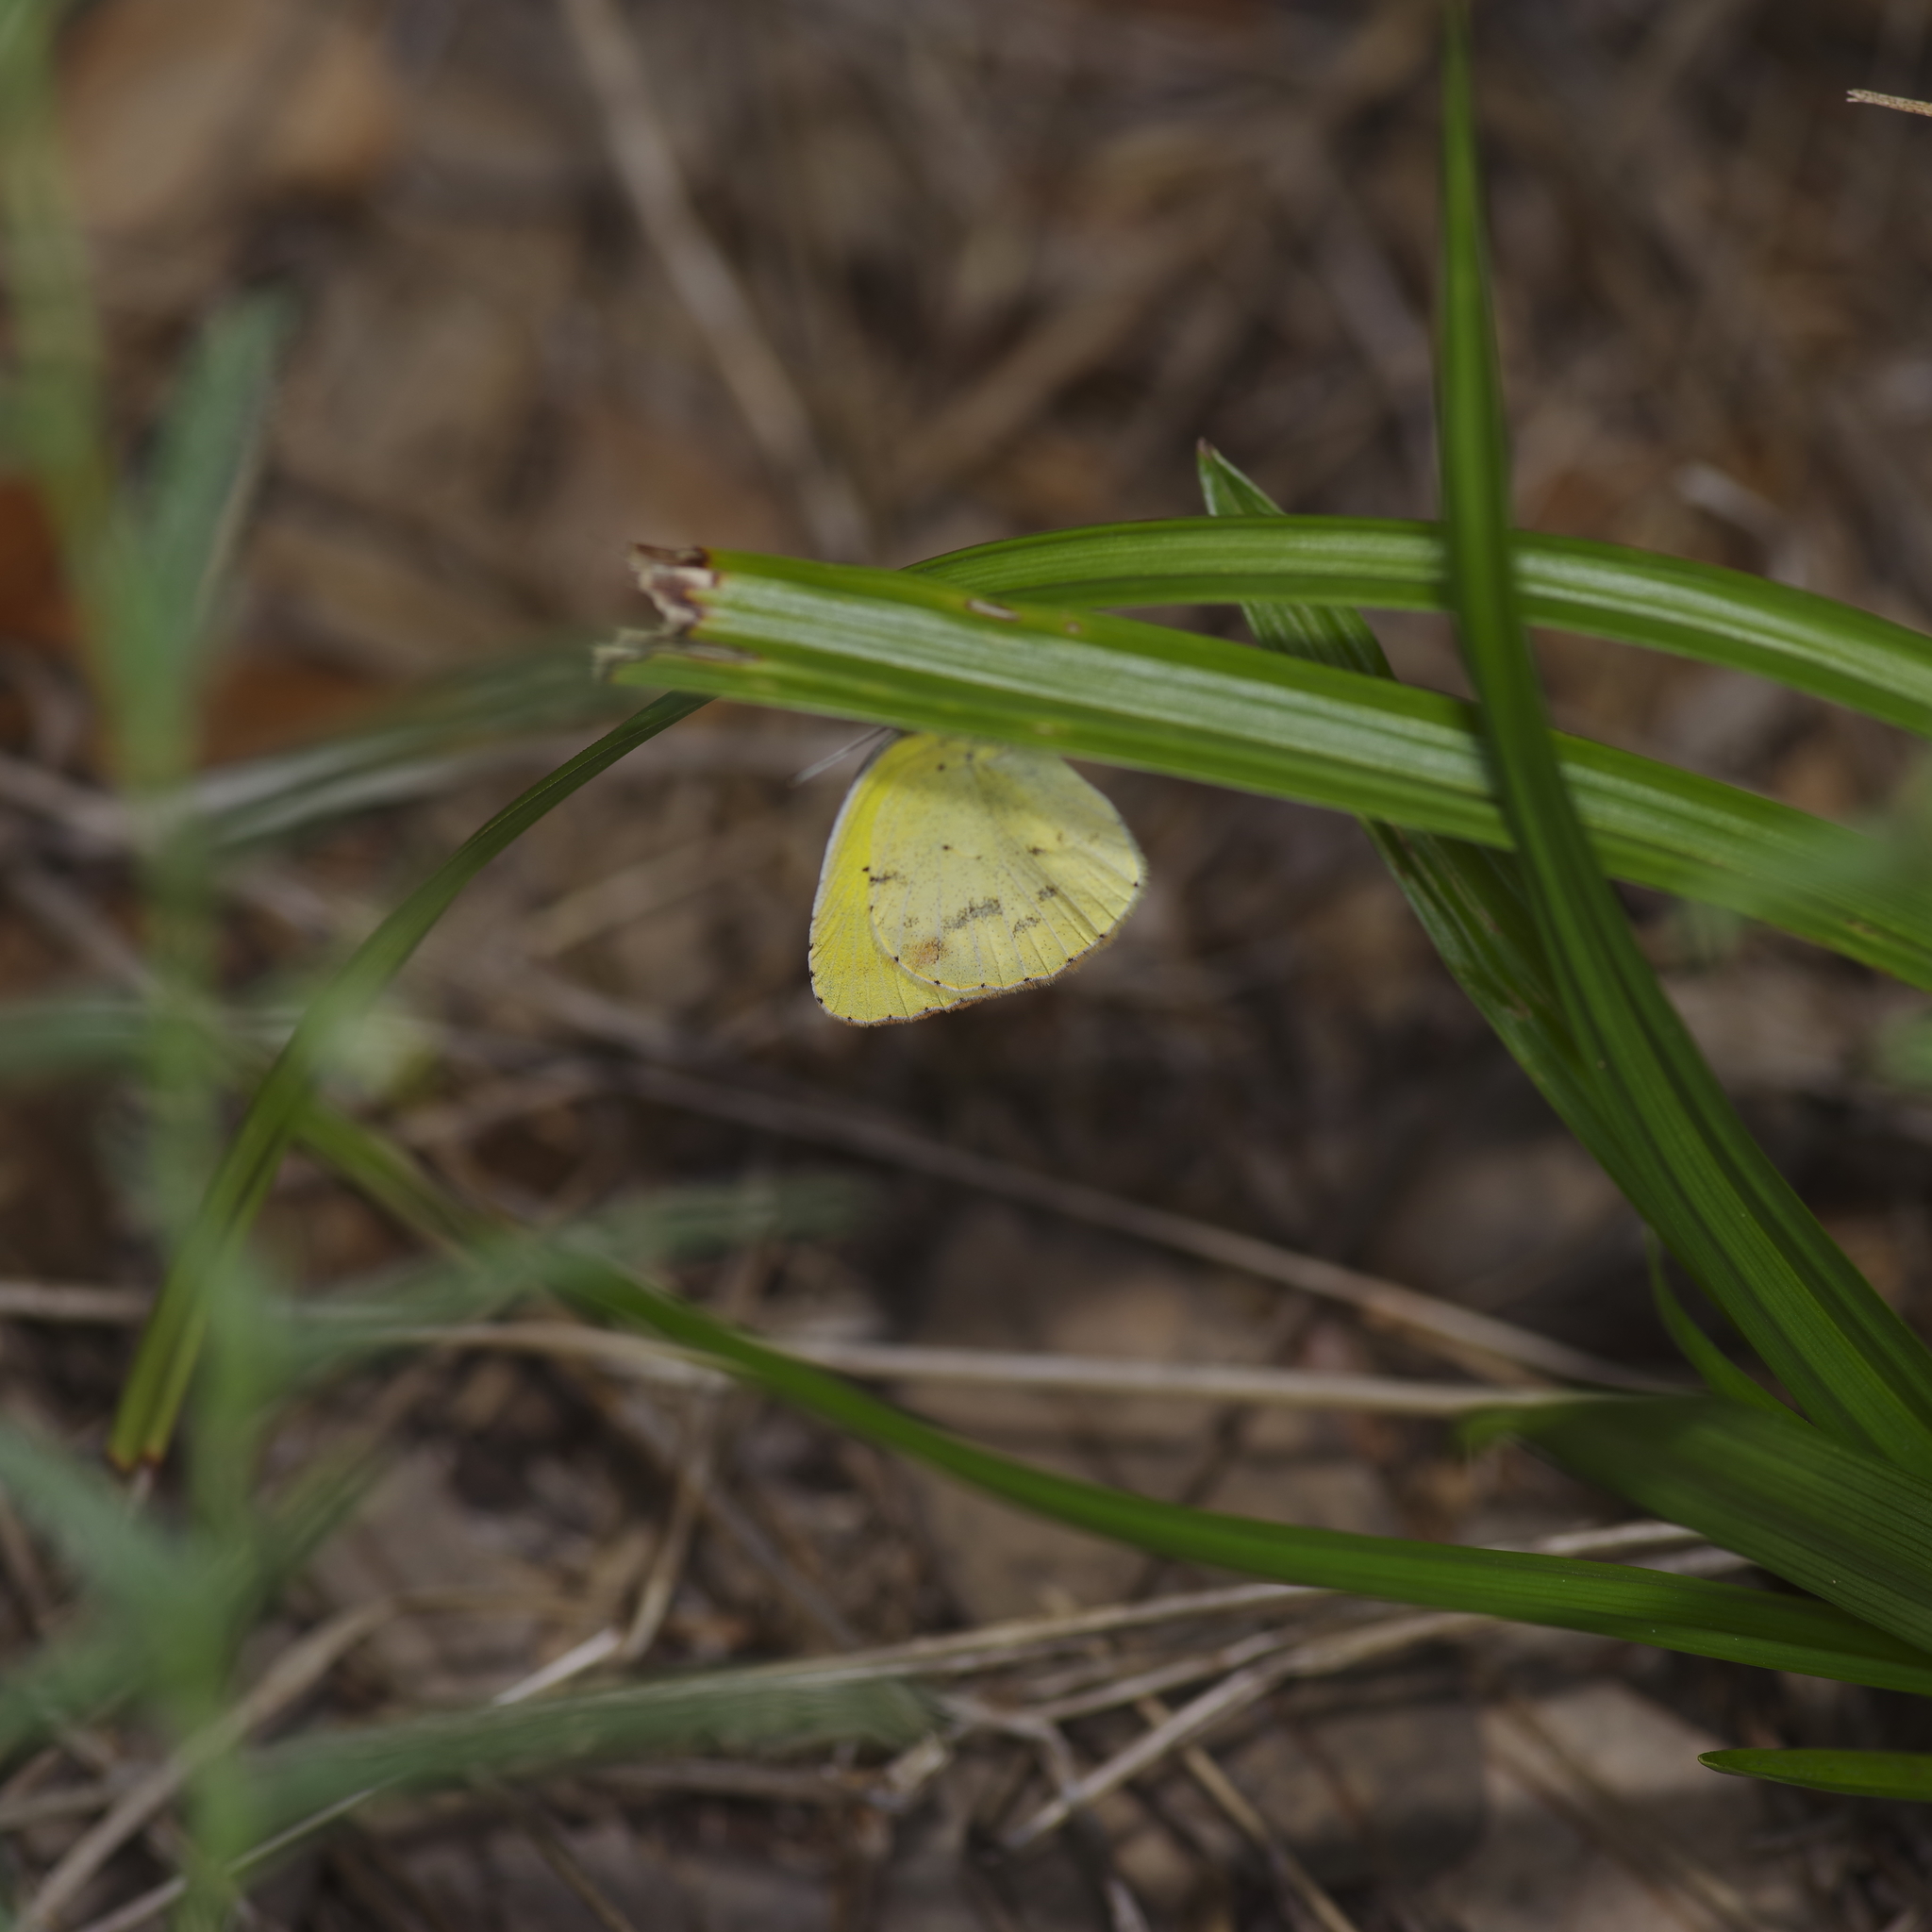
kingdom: Animalia
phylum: Arthropoda
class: Insecta
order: Lepidoptera
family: Pieridae
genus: Pyrisitia
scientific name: Pyrisitia lisa
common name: Little yellow
